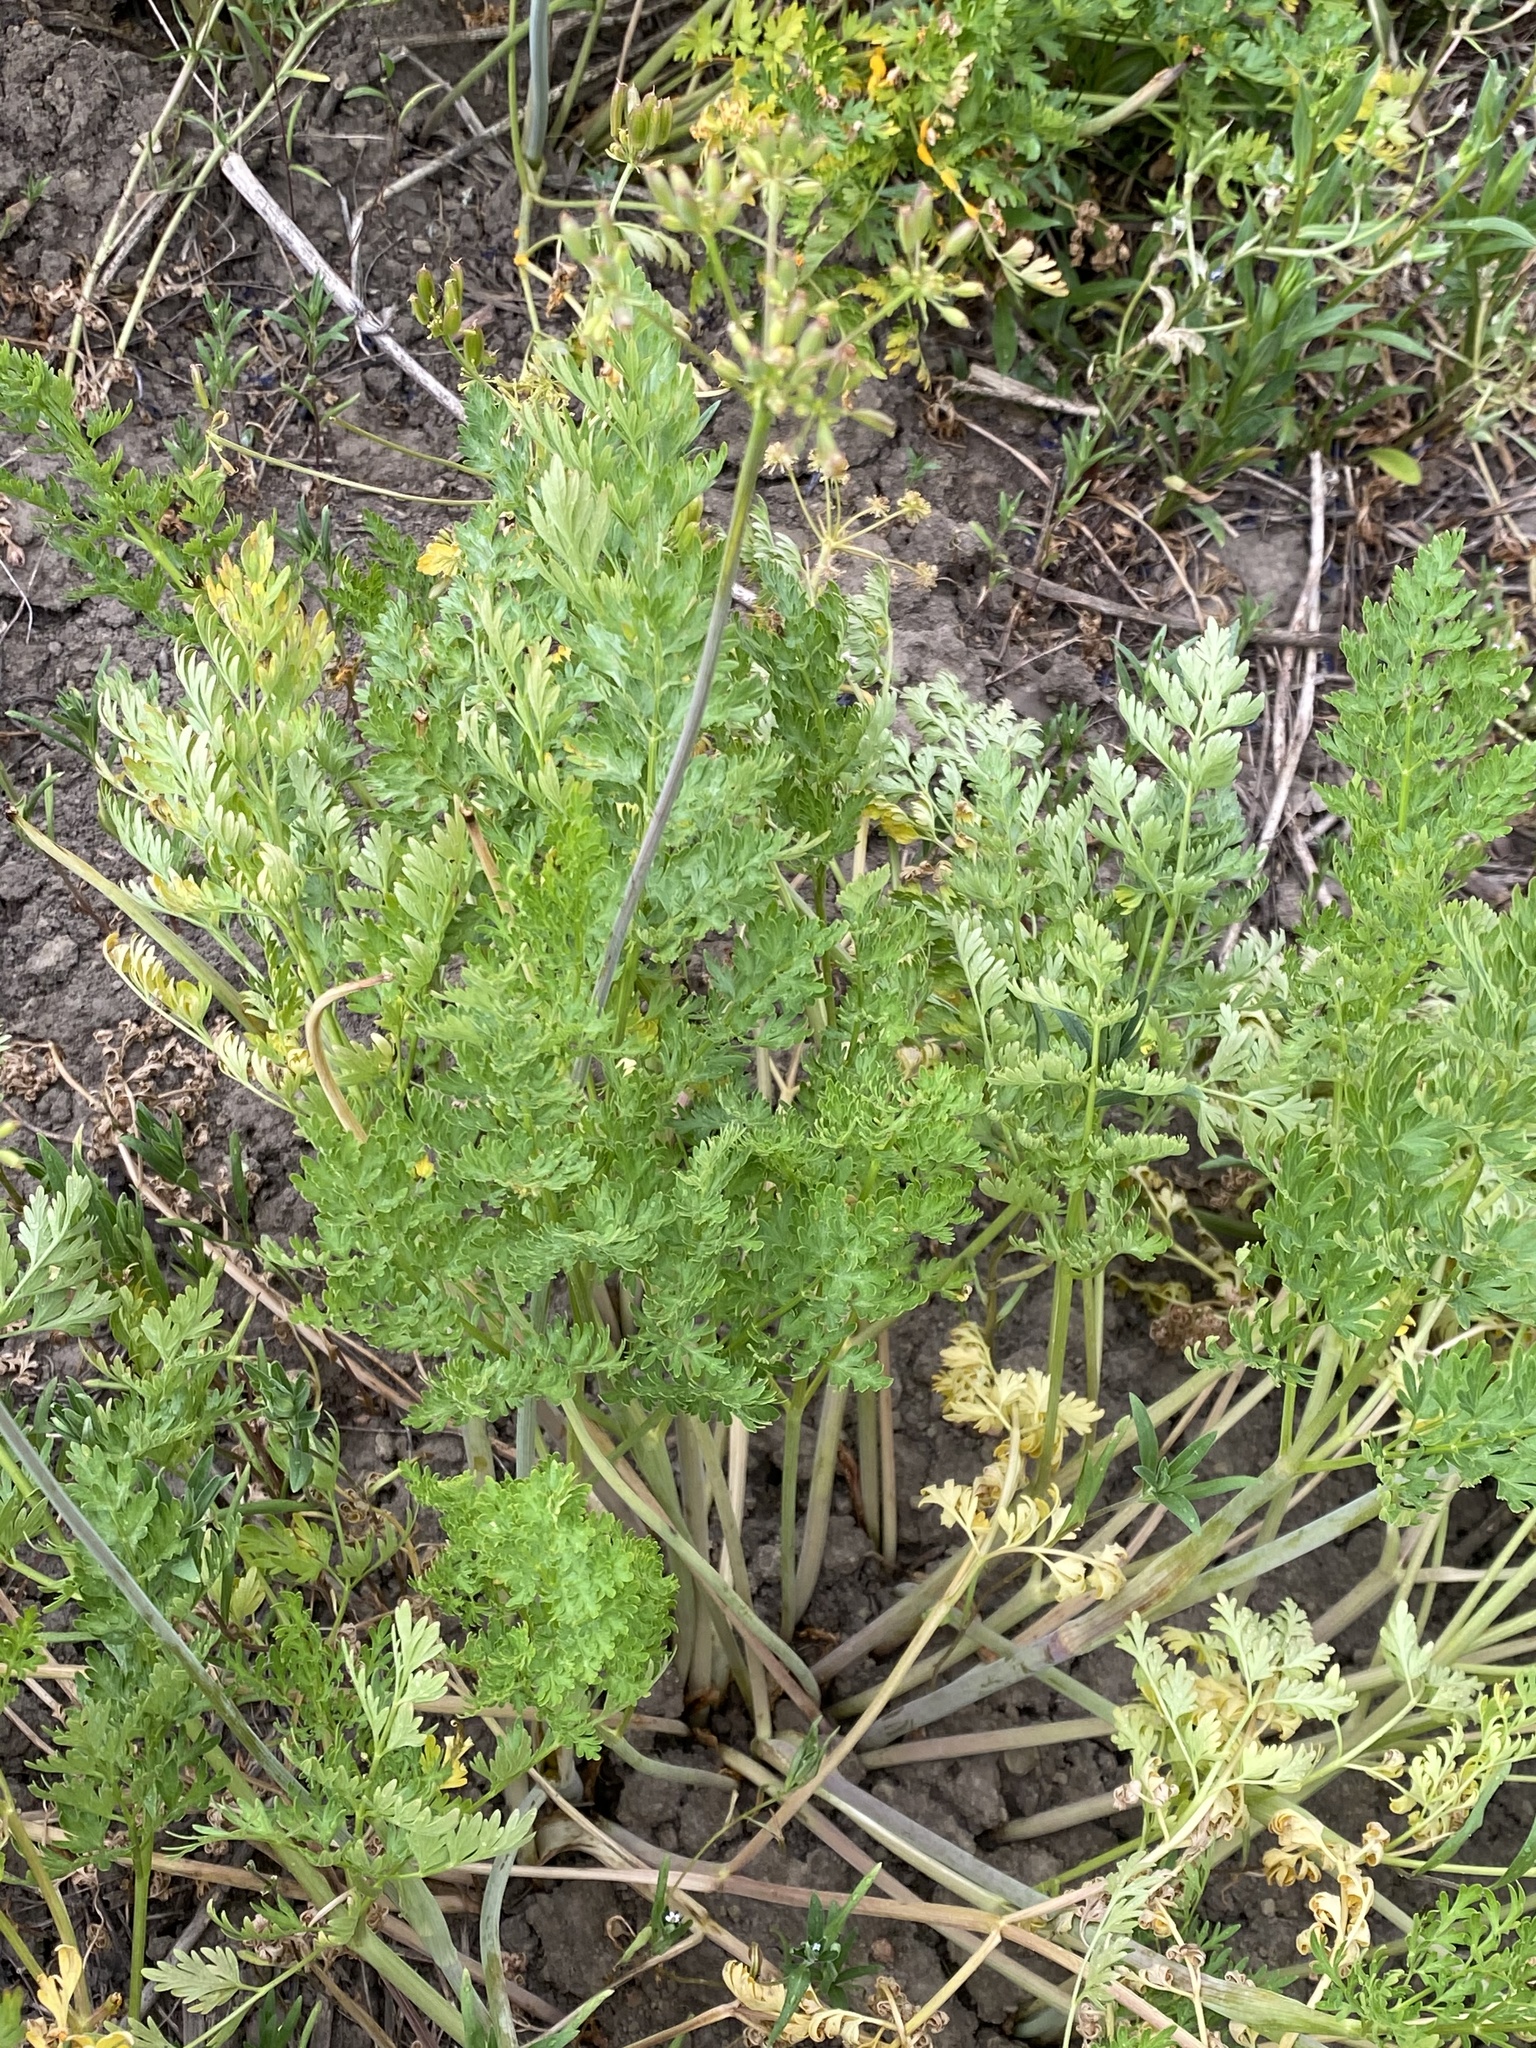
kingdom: Plantae
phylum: Tracheophyta
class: Magnoliopsida
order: Apiales
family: Apiaceae
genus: Lomatium
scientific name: Lomatium multifidum
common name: Carrot-leaved biscuitroot
